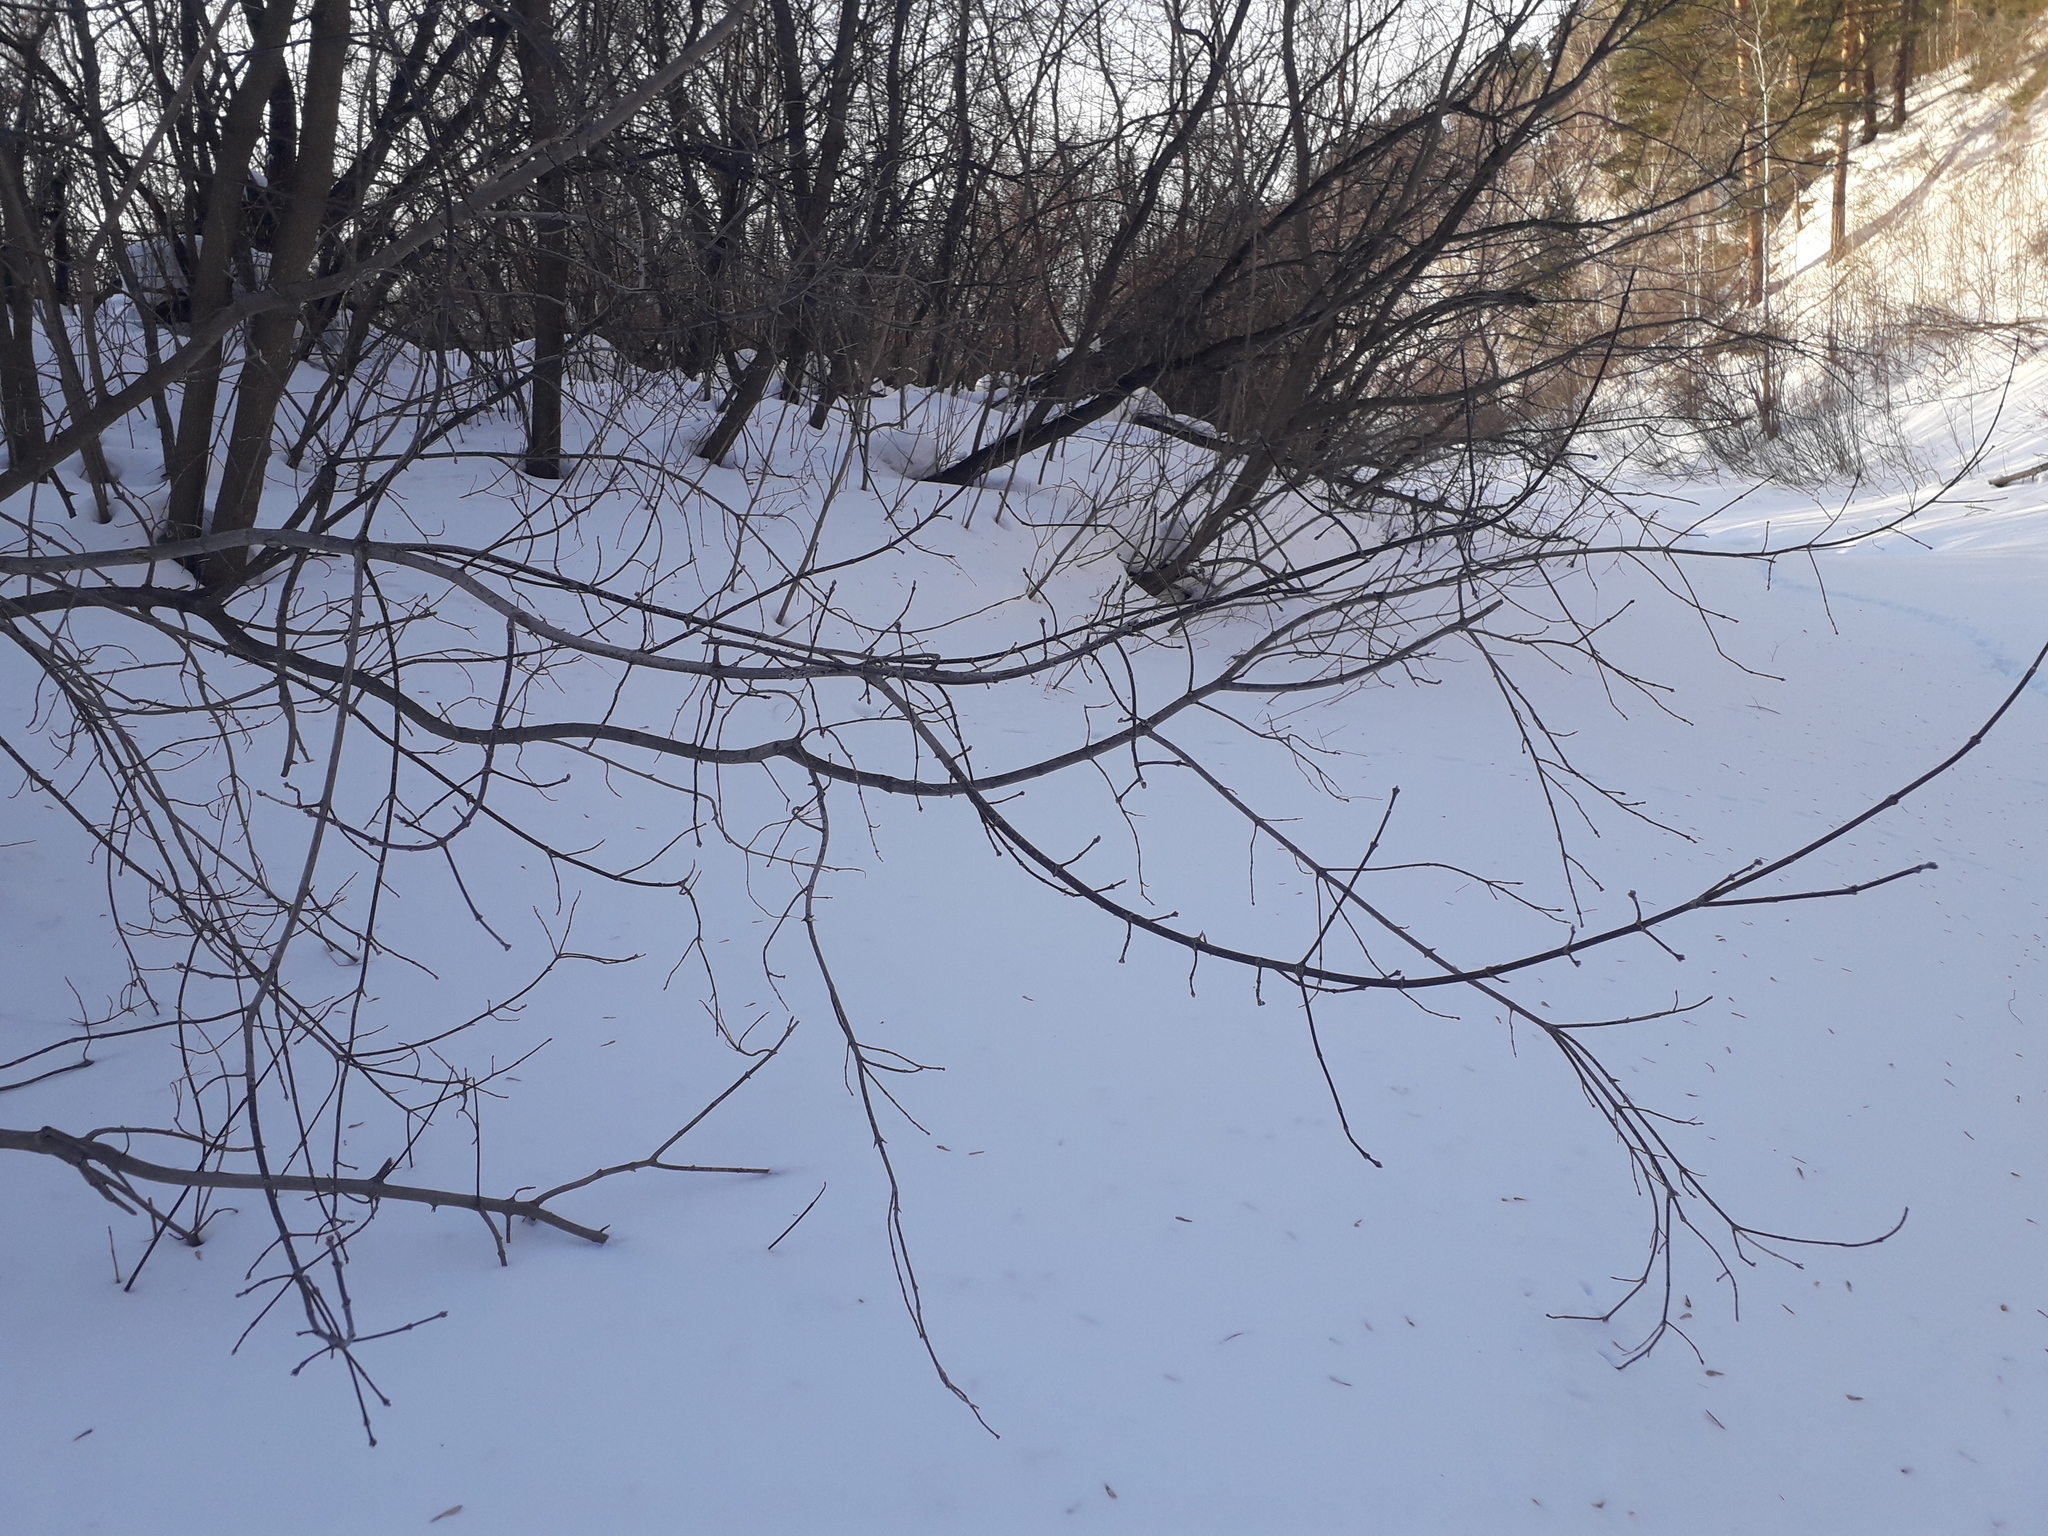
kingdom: Plantae
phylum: Tracheophyta
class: Magnoliopsida
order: Sapindales
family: Sapindaceae
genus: Acer
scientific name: Acer negundo
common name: Ashleaf maple
